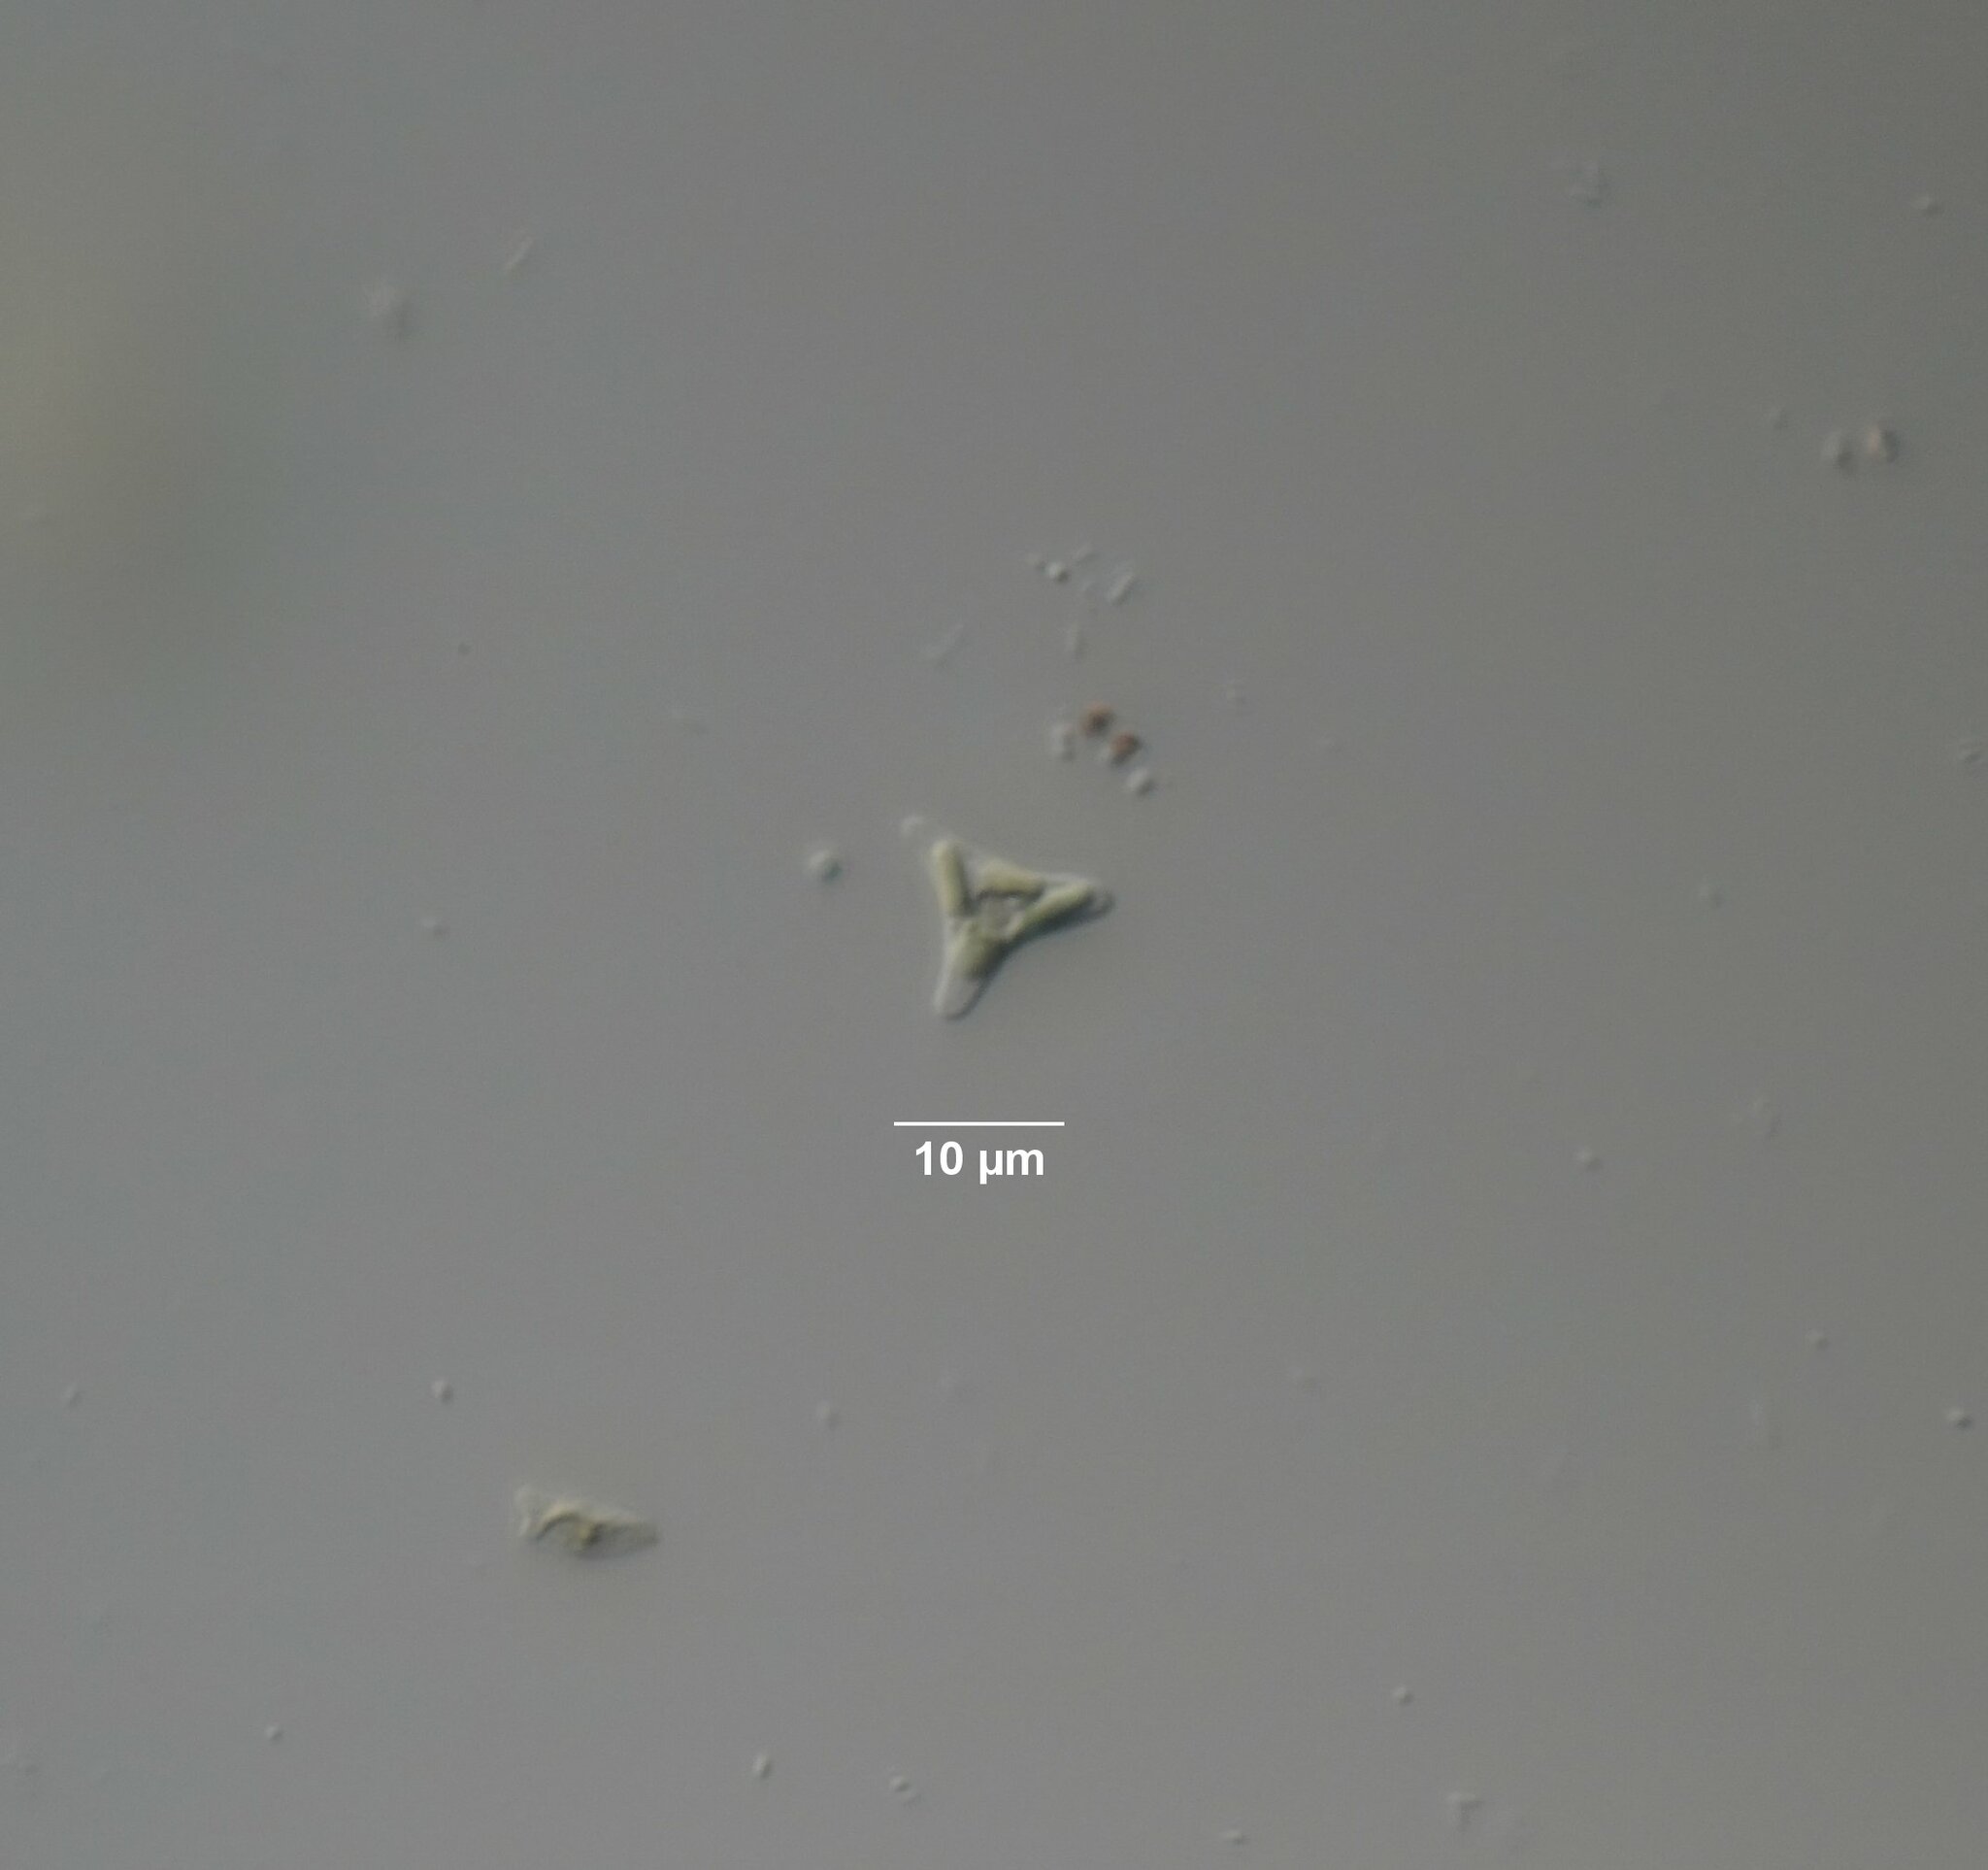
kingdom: Chromista
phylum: Ochrophyta
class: Xanthophyceae
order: Mischococcales
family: Pleurochloridaceae
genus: Goniochloris
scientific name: Goniochloris mutica
